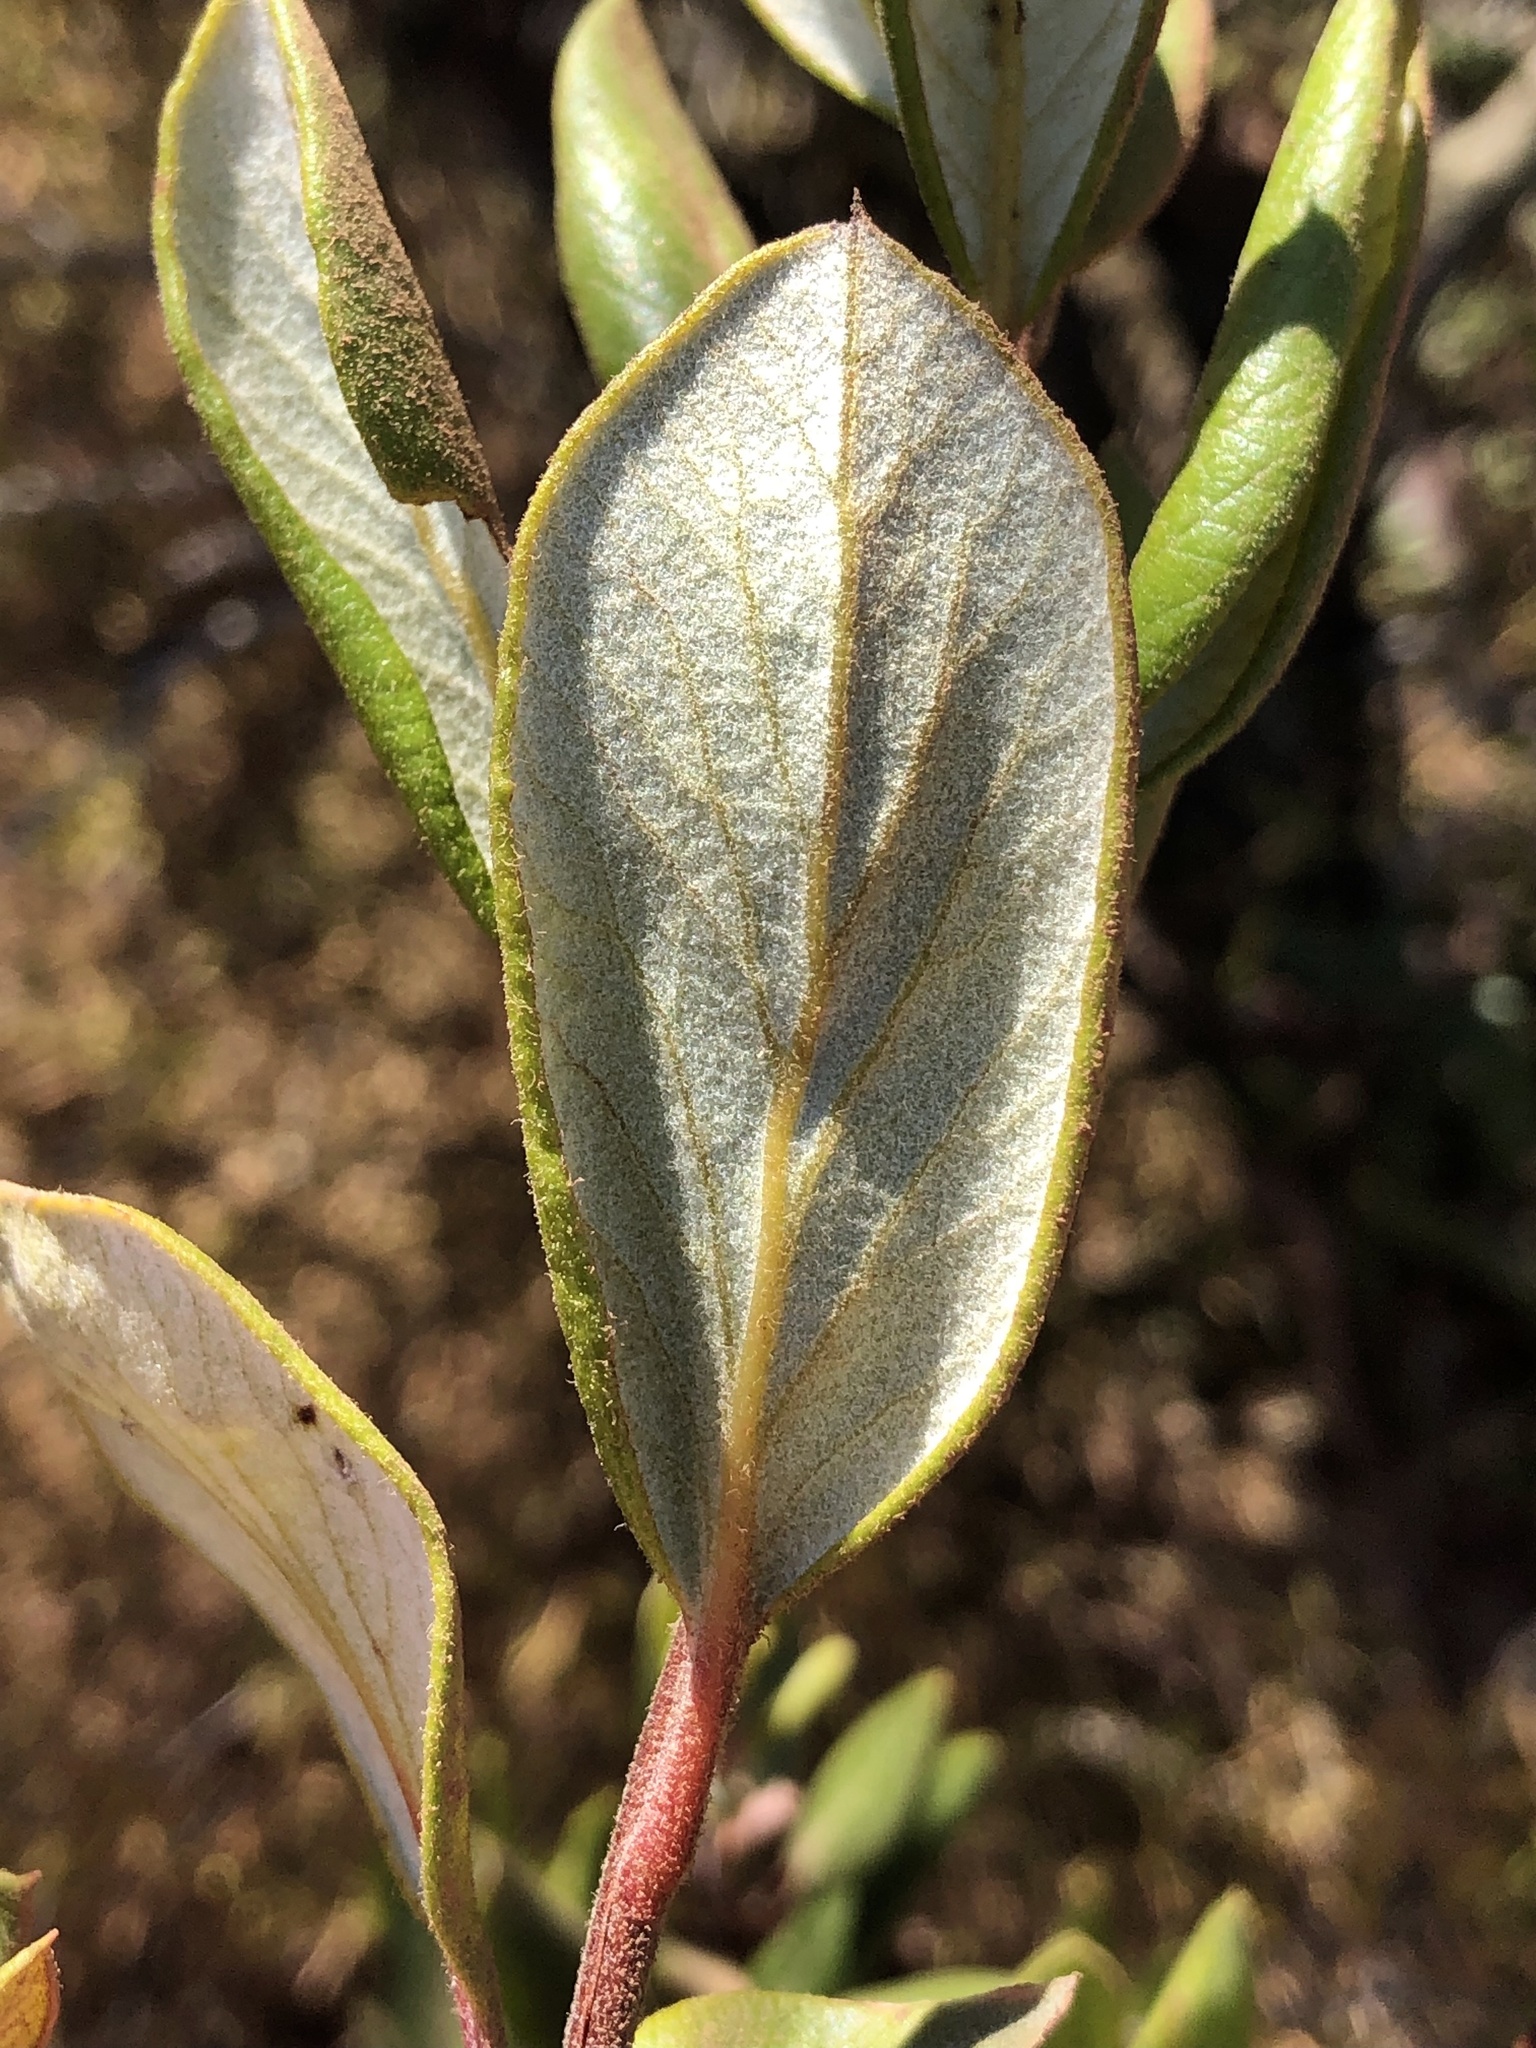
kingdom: Plantae
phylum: Tracheophyta
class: Magnoliopsida
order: Ericales
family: Ericaceae
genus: Arctostaphylos
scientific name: Arctostaphylos bicolor
